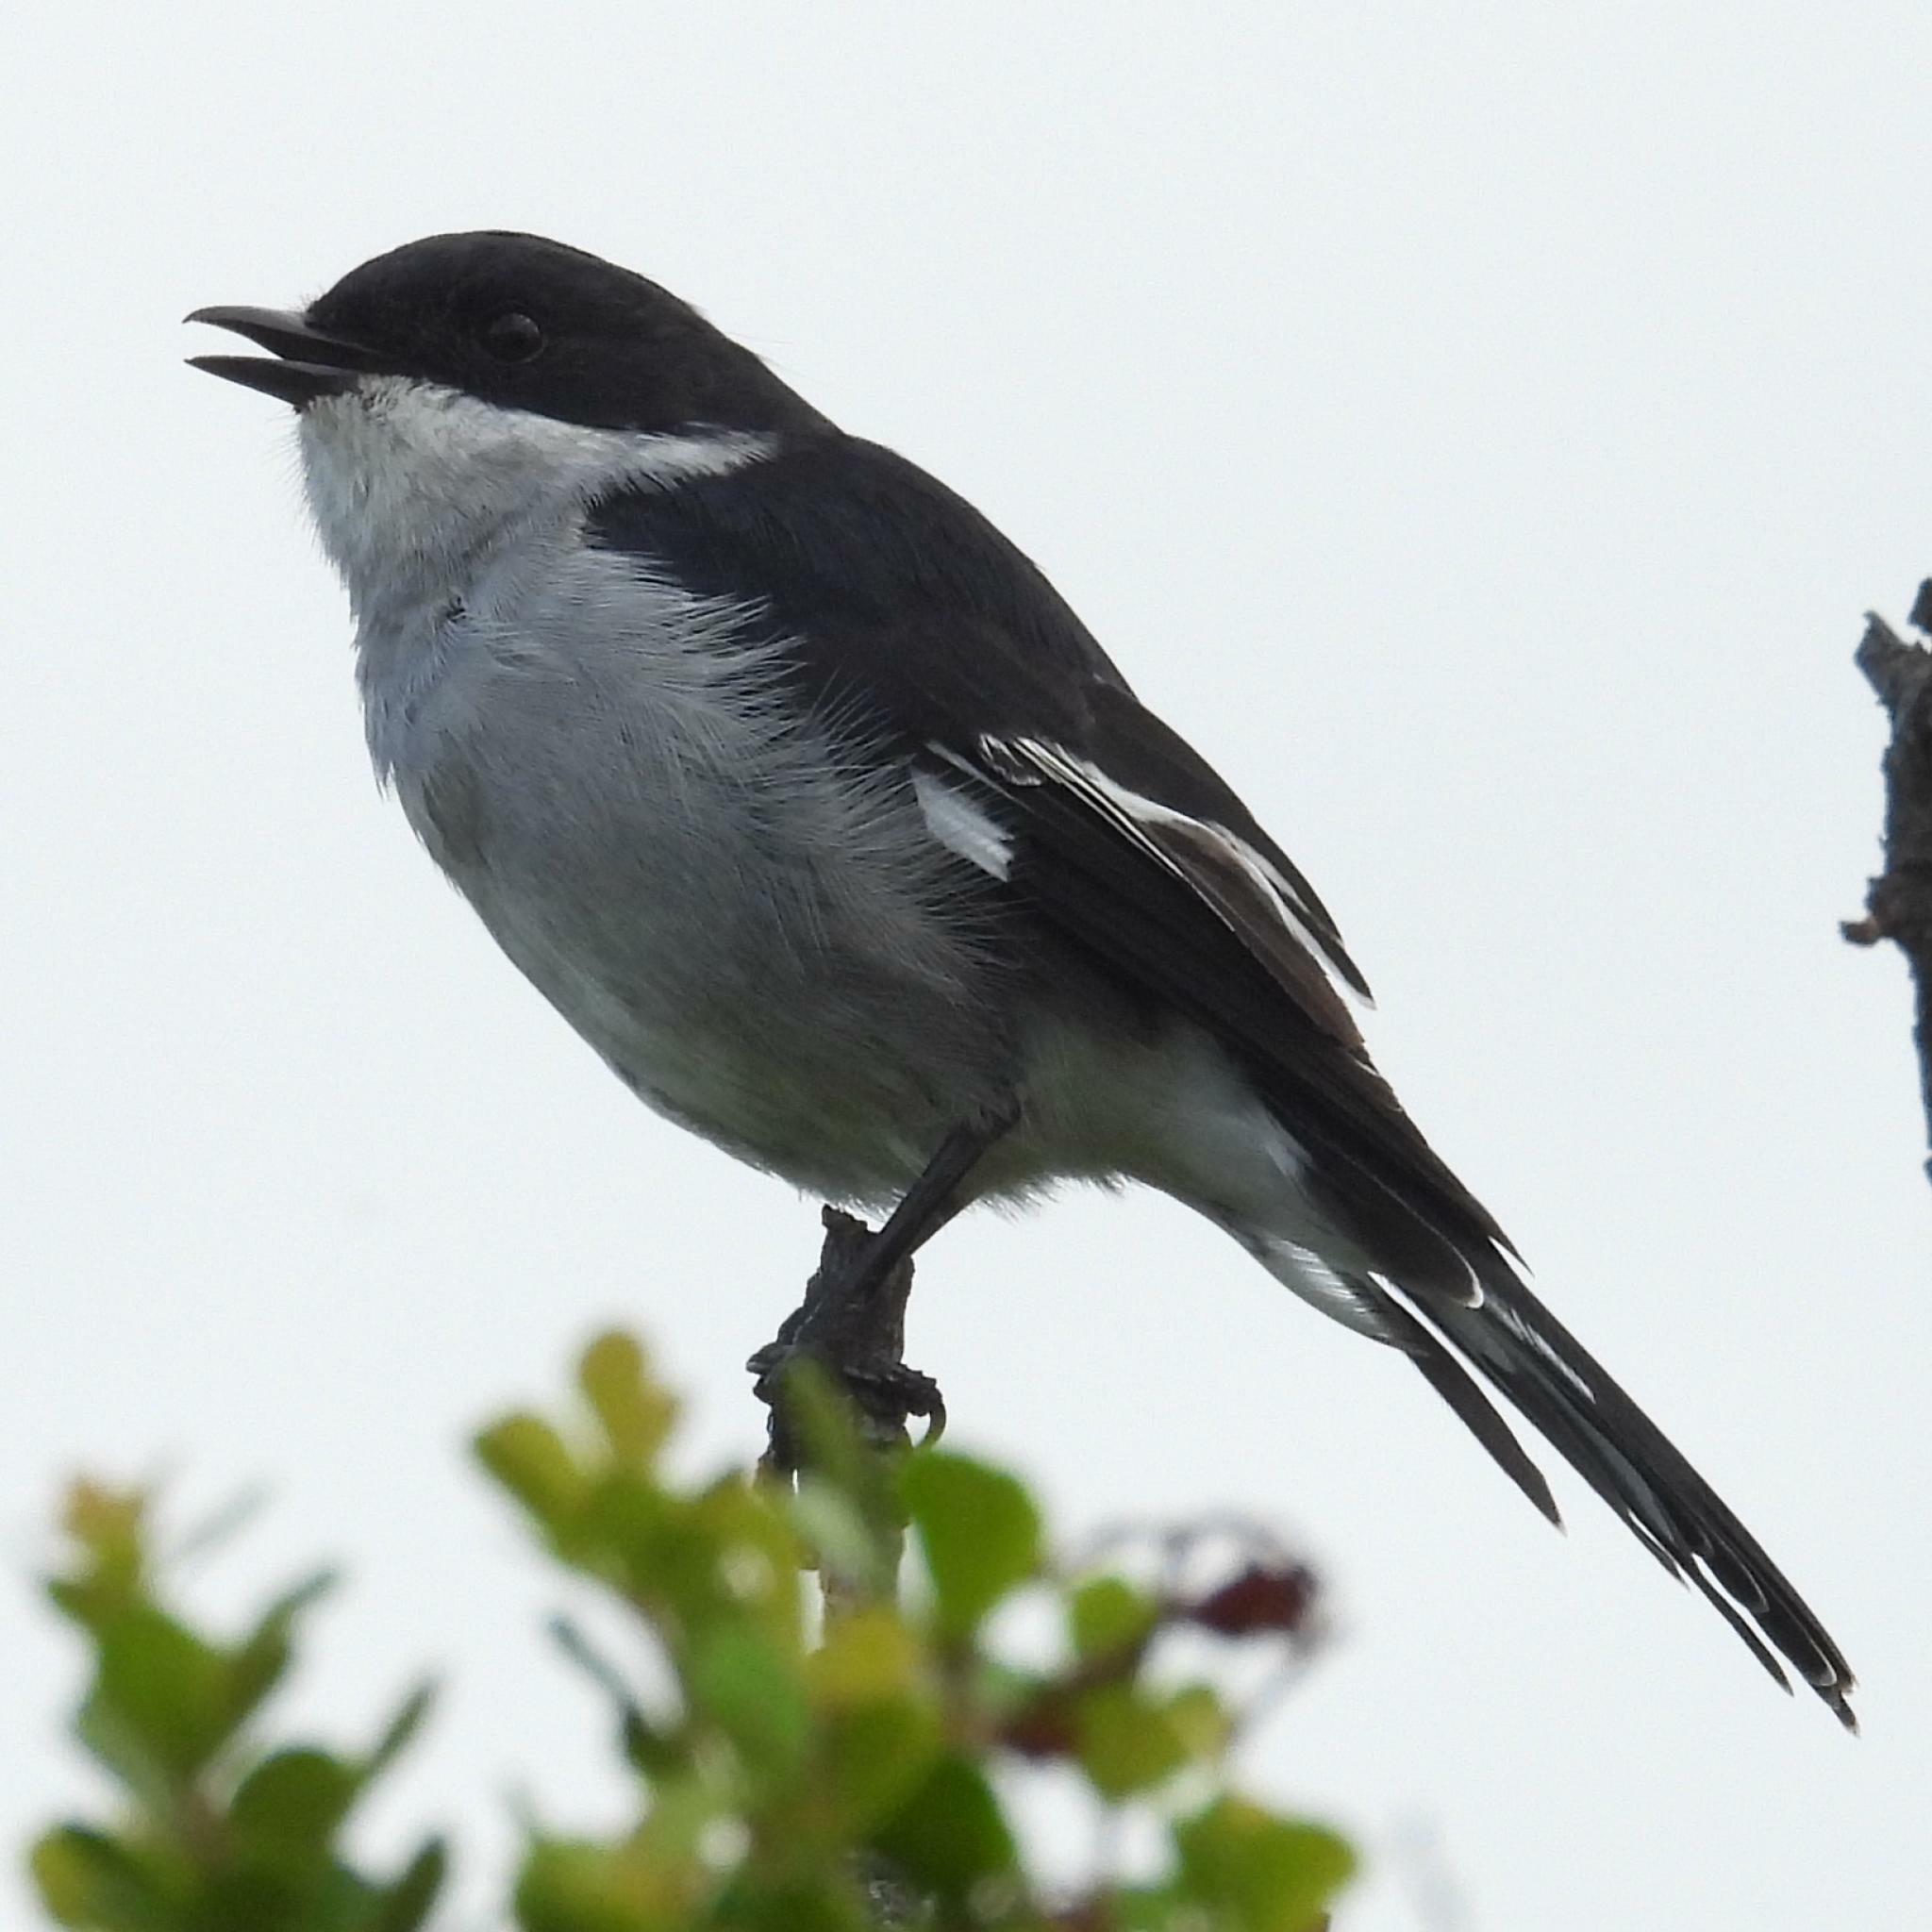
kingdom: Animalia
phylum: Chordata
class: Aves
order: Passeriformes
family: Muscicapidae
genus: Sigelus
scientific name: Sigelus silens
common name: Fiscal flycatcher
